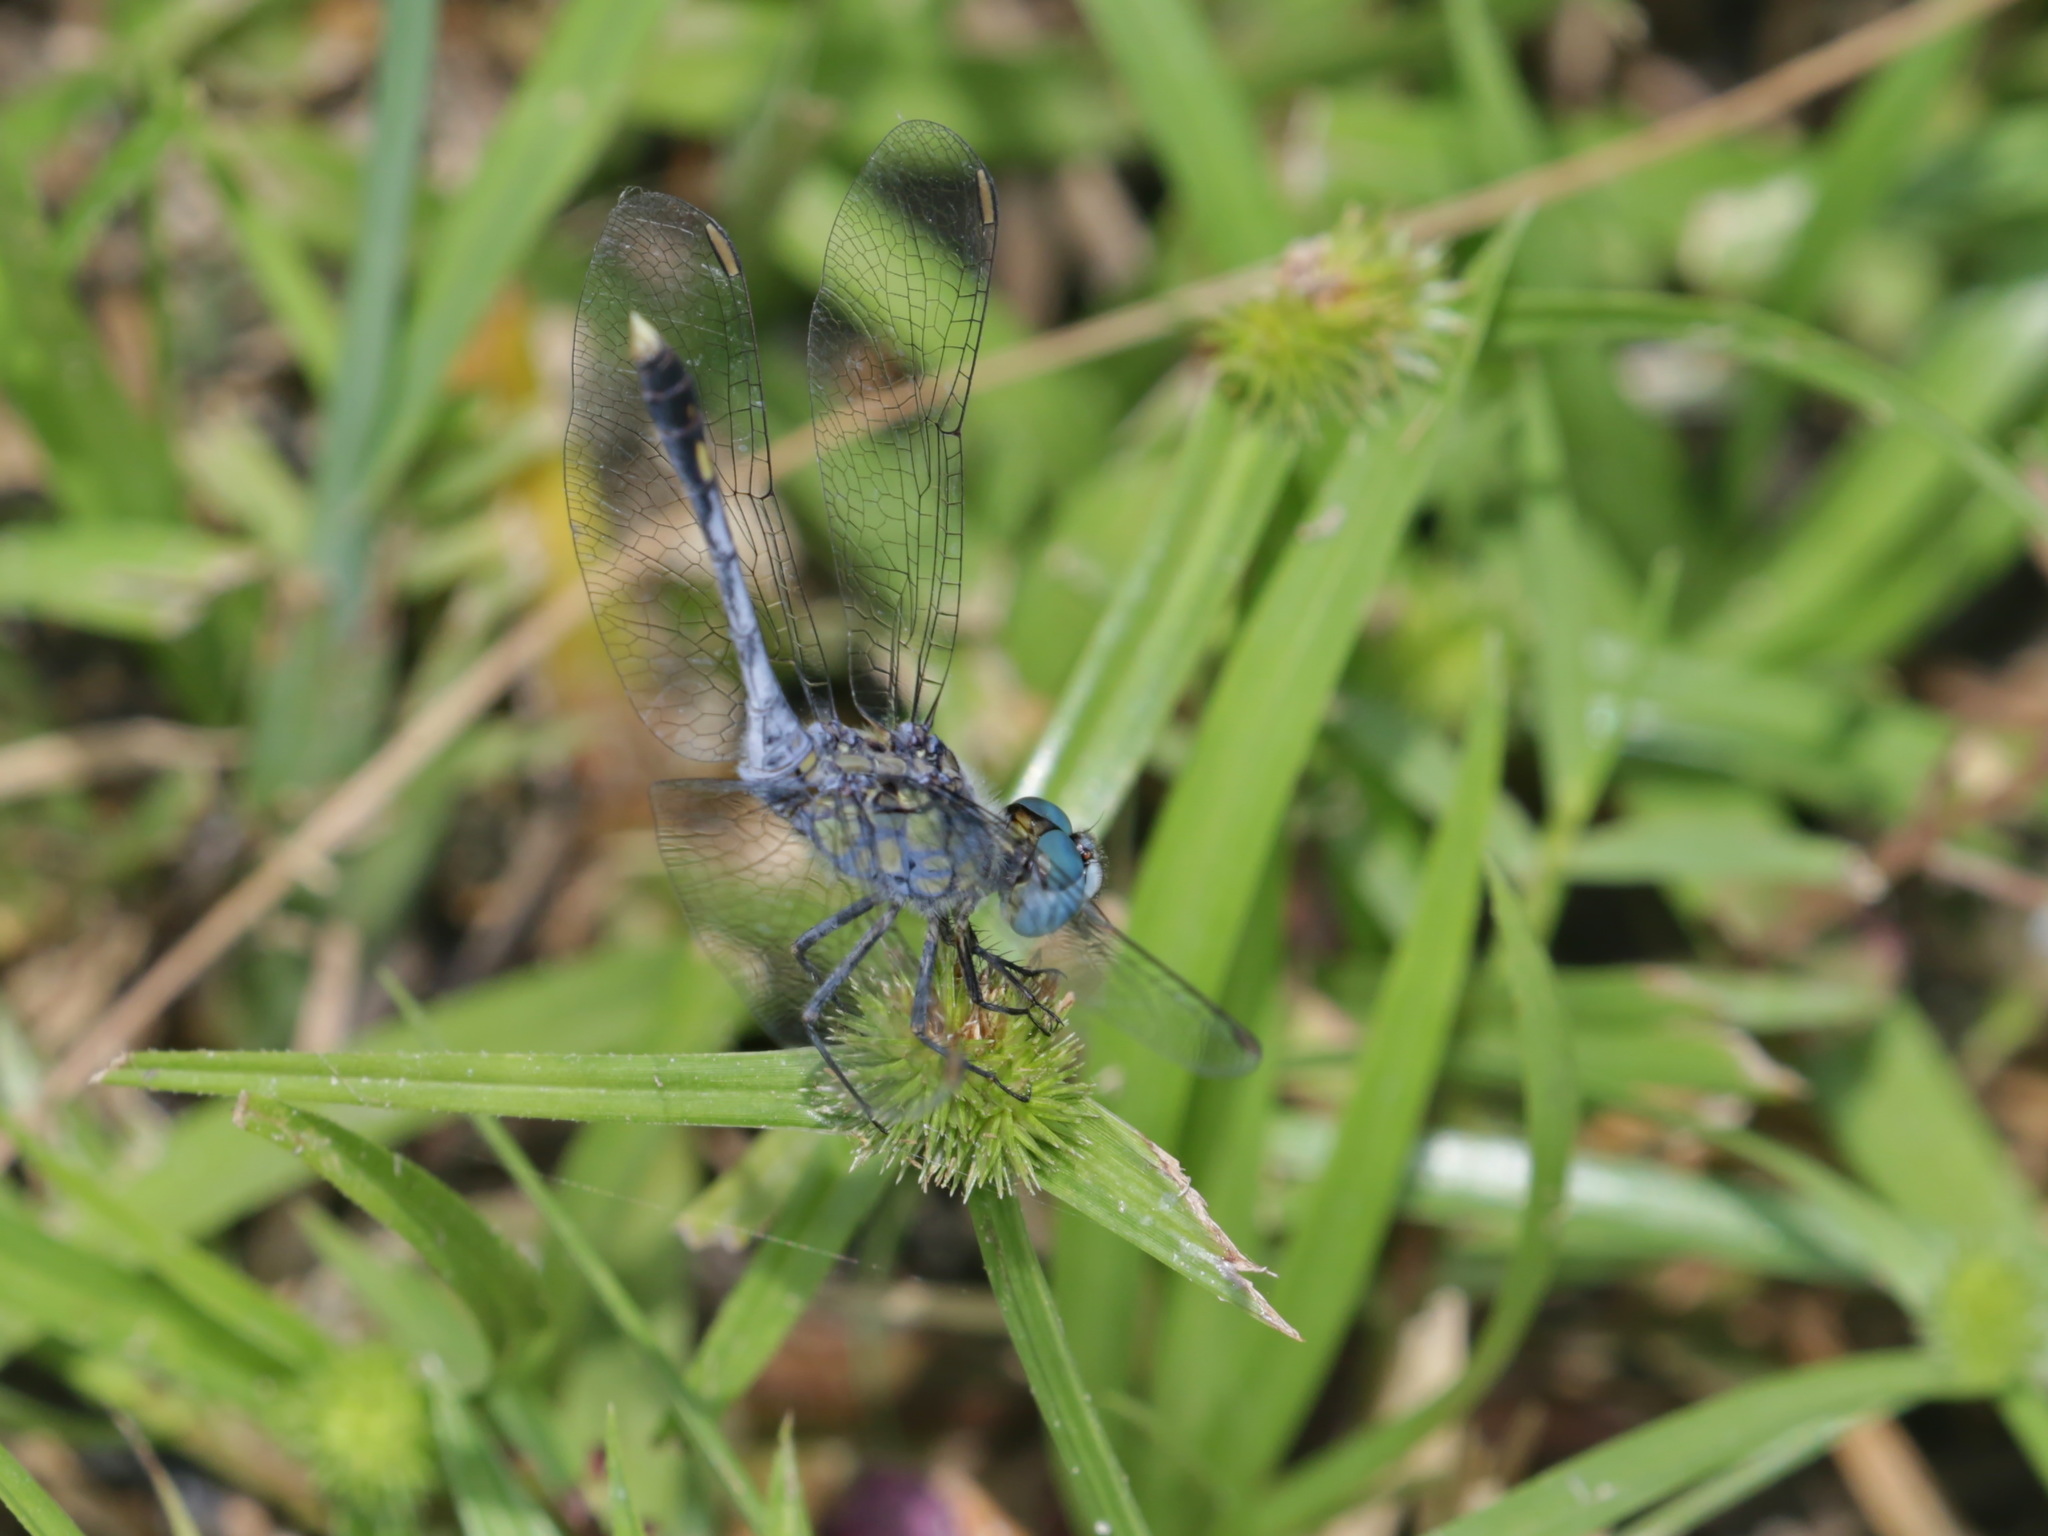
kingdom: Animalia
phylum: Arthropoda
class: Insecta
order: Odonata
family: Libellulidae
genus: Diplacodes
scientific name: Diplacodes trivialis
